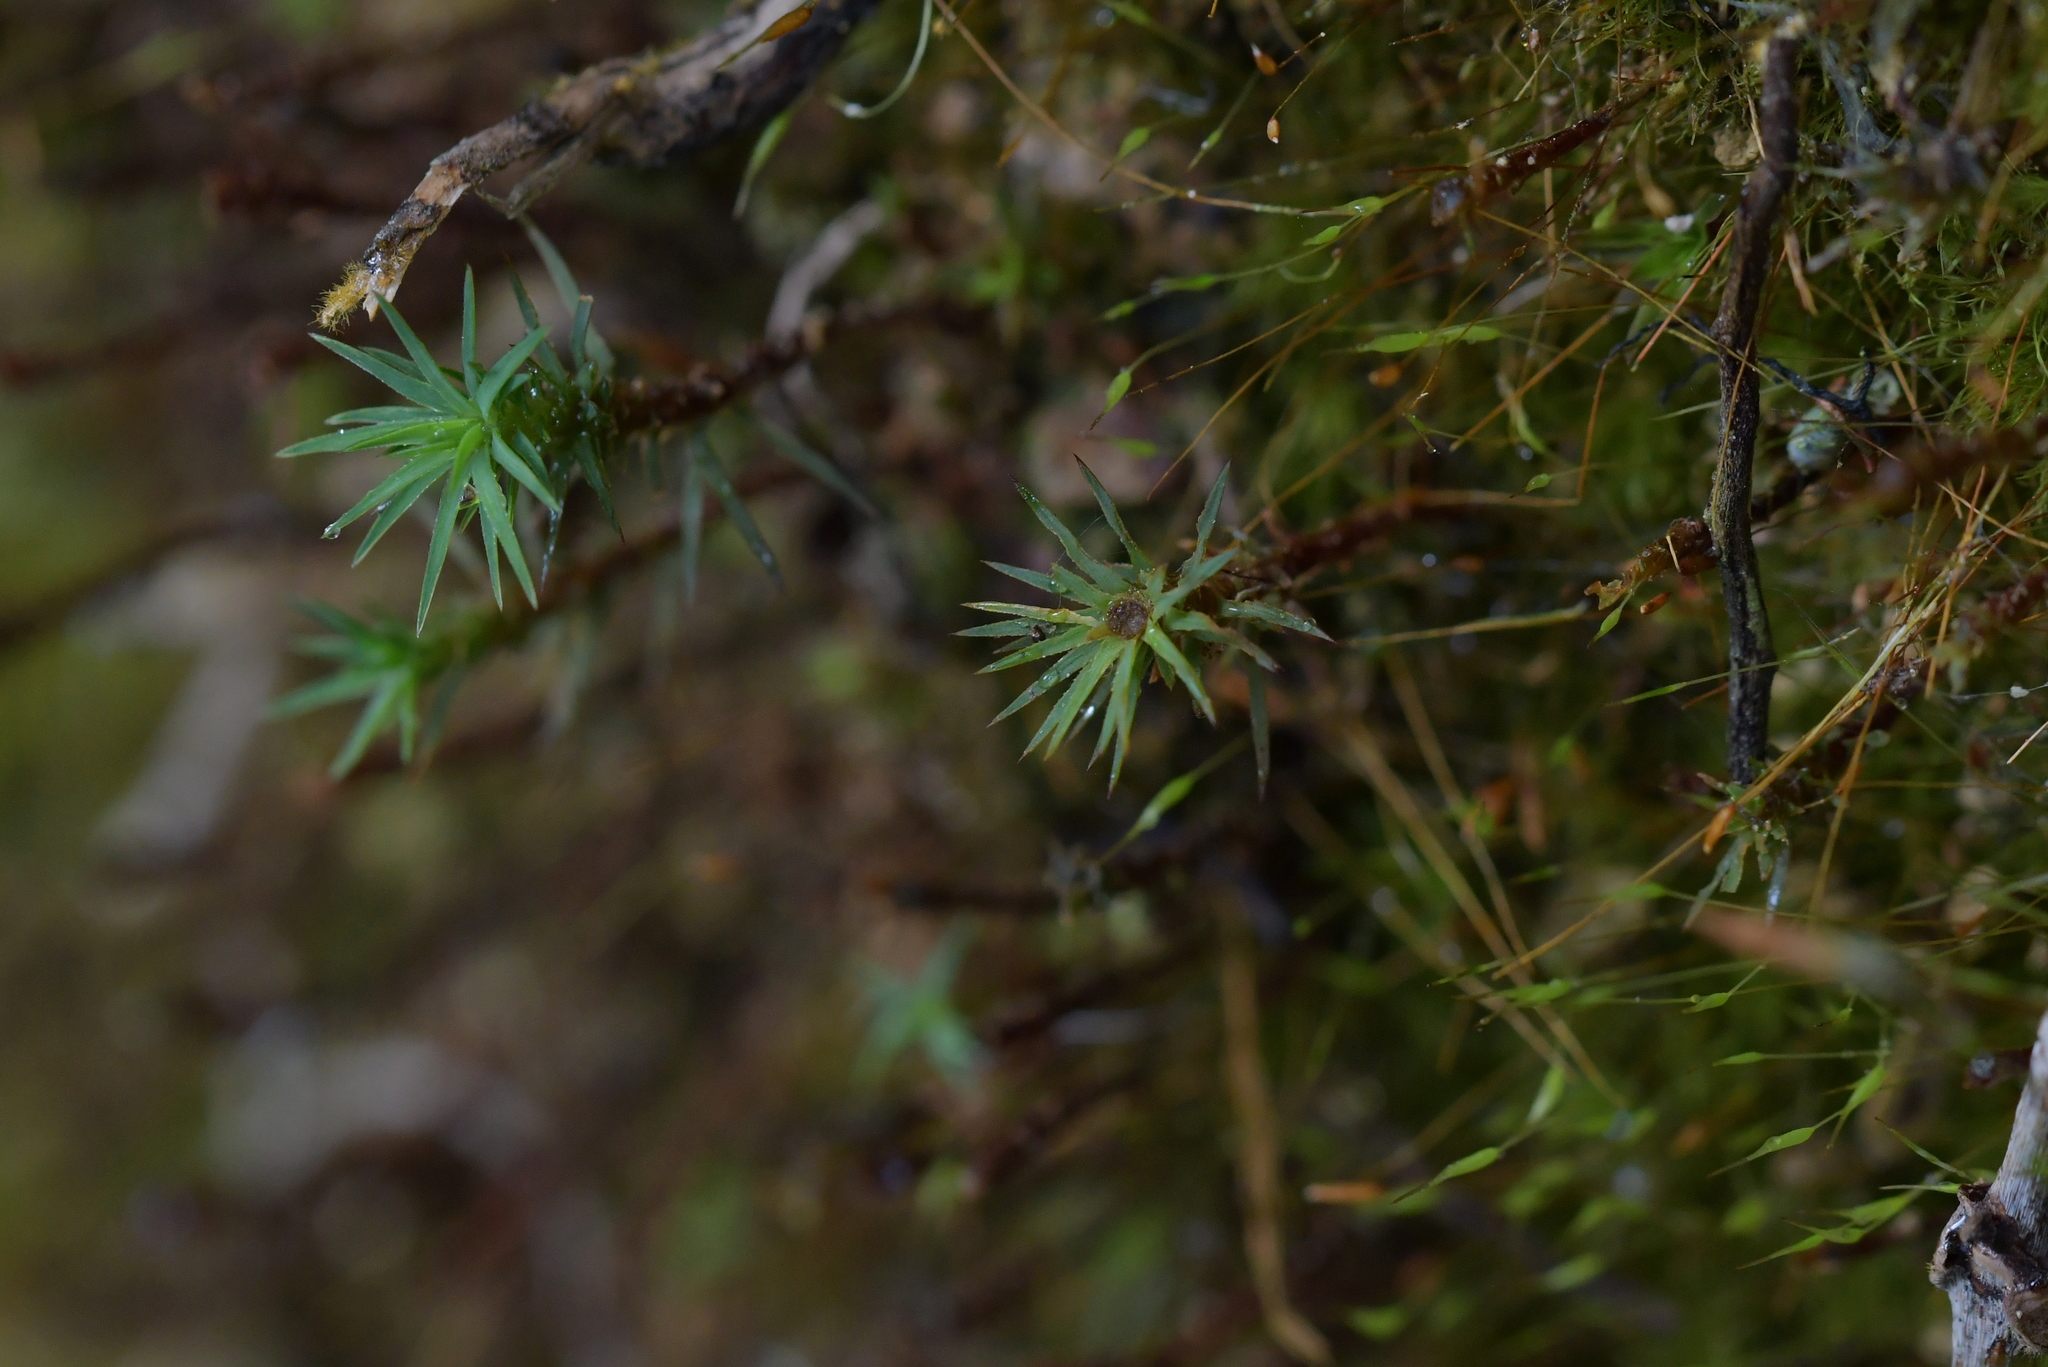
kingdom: Plantae
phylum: Bryophyta
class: Polytrichopsida
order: Polytrichales
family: Polytrichaceae
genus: Polytrichadelphus
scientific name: Polytrichadelphus magellanicus
